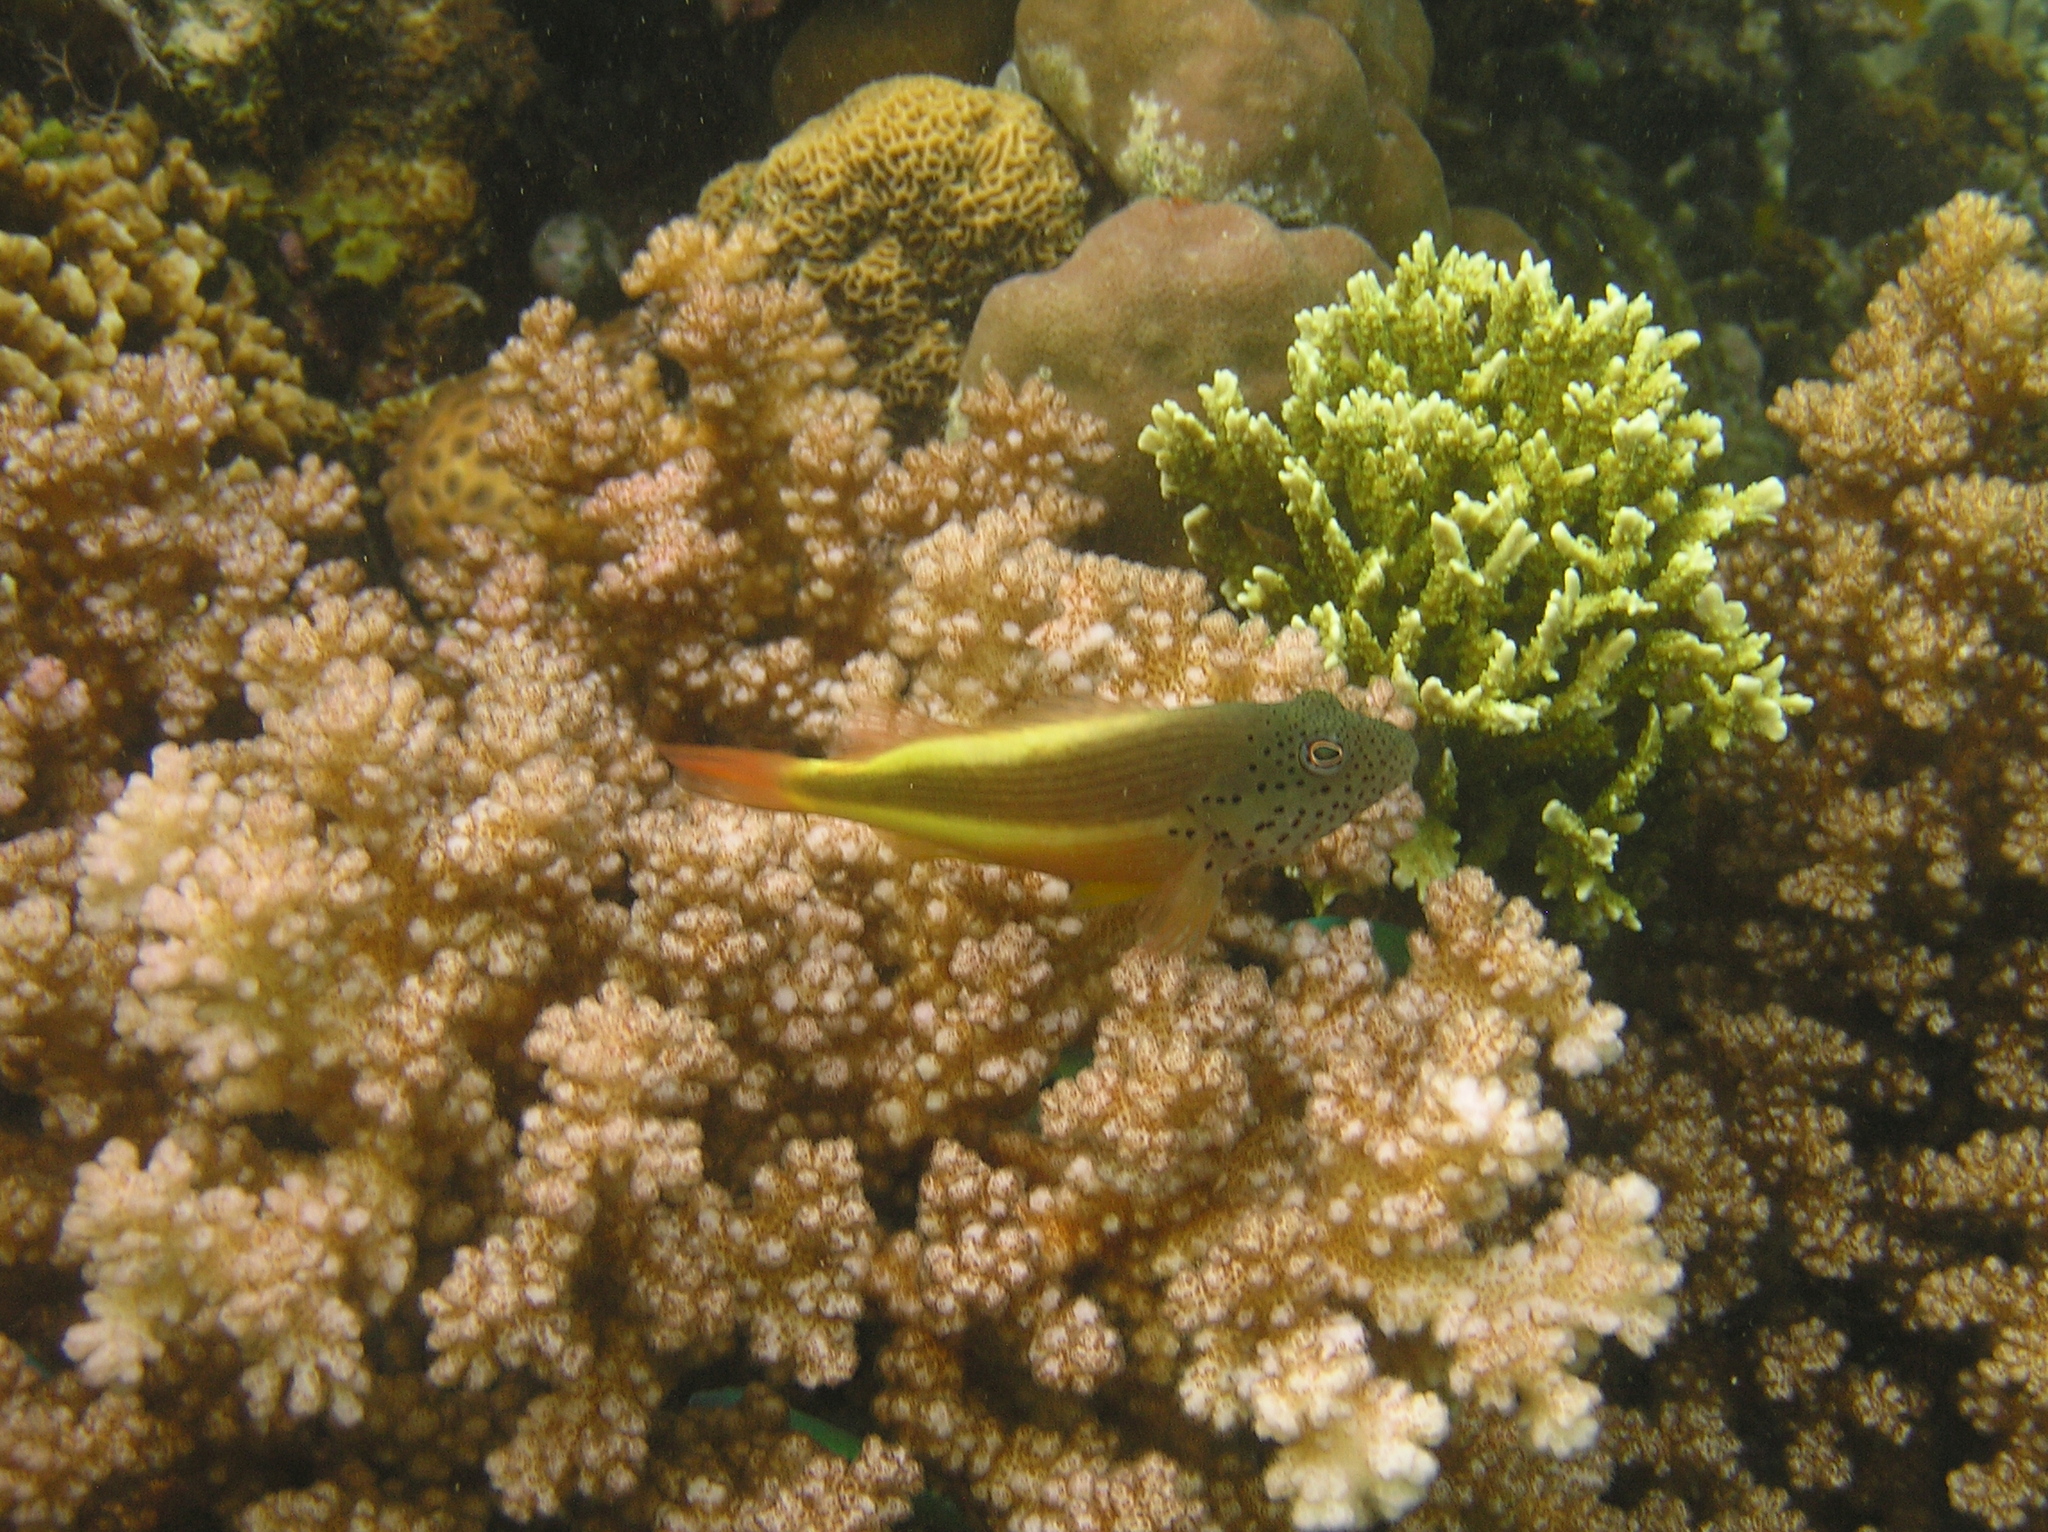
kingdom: Animalia
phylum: Chordata
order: Perciformes
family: Cirrhitidae
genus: Paracirrhites
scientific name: Paracirrhites forsteri
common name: Freckled hawkfish
